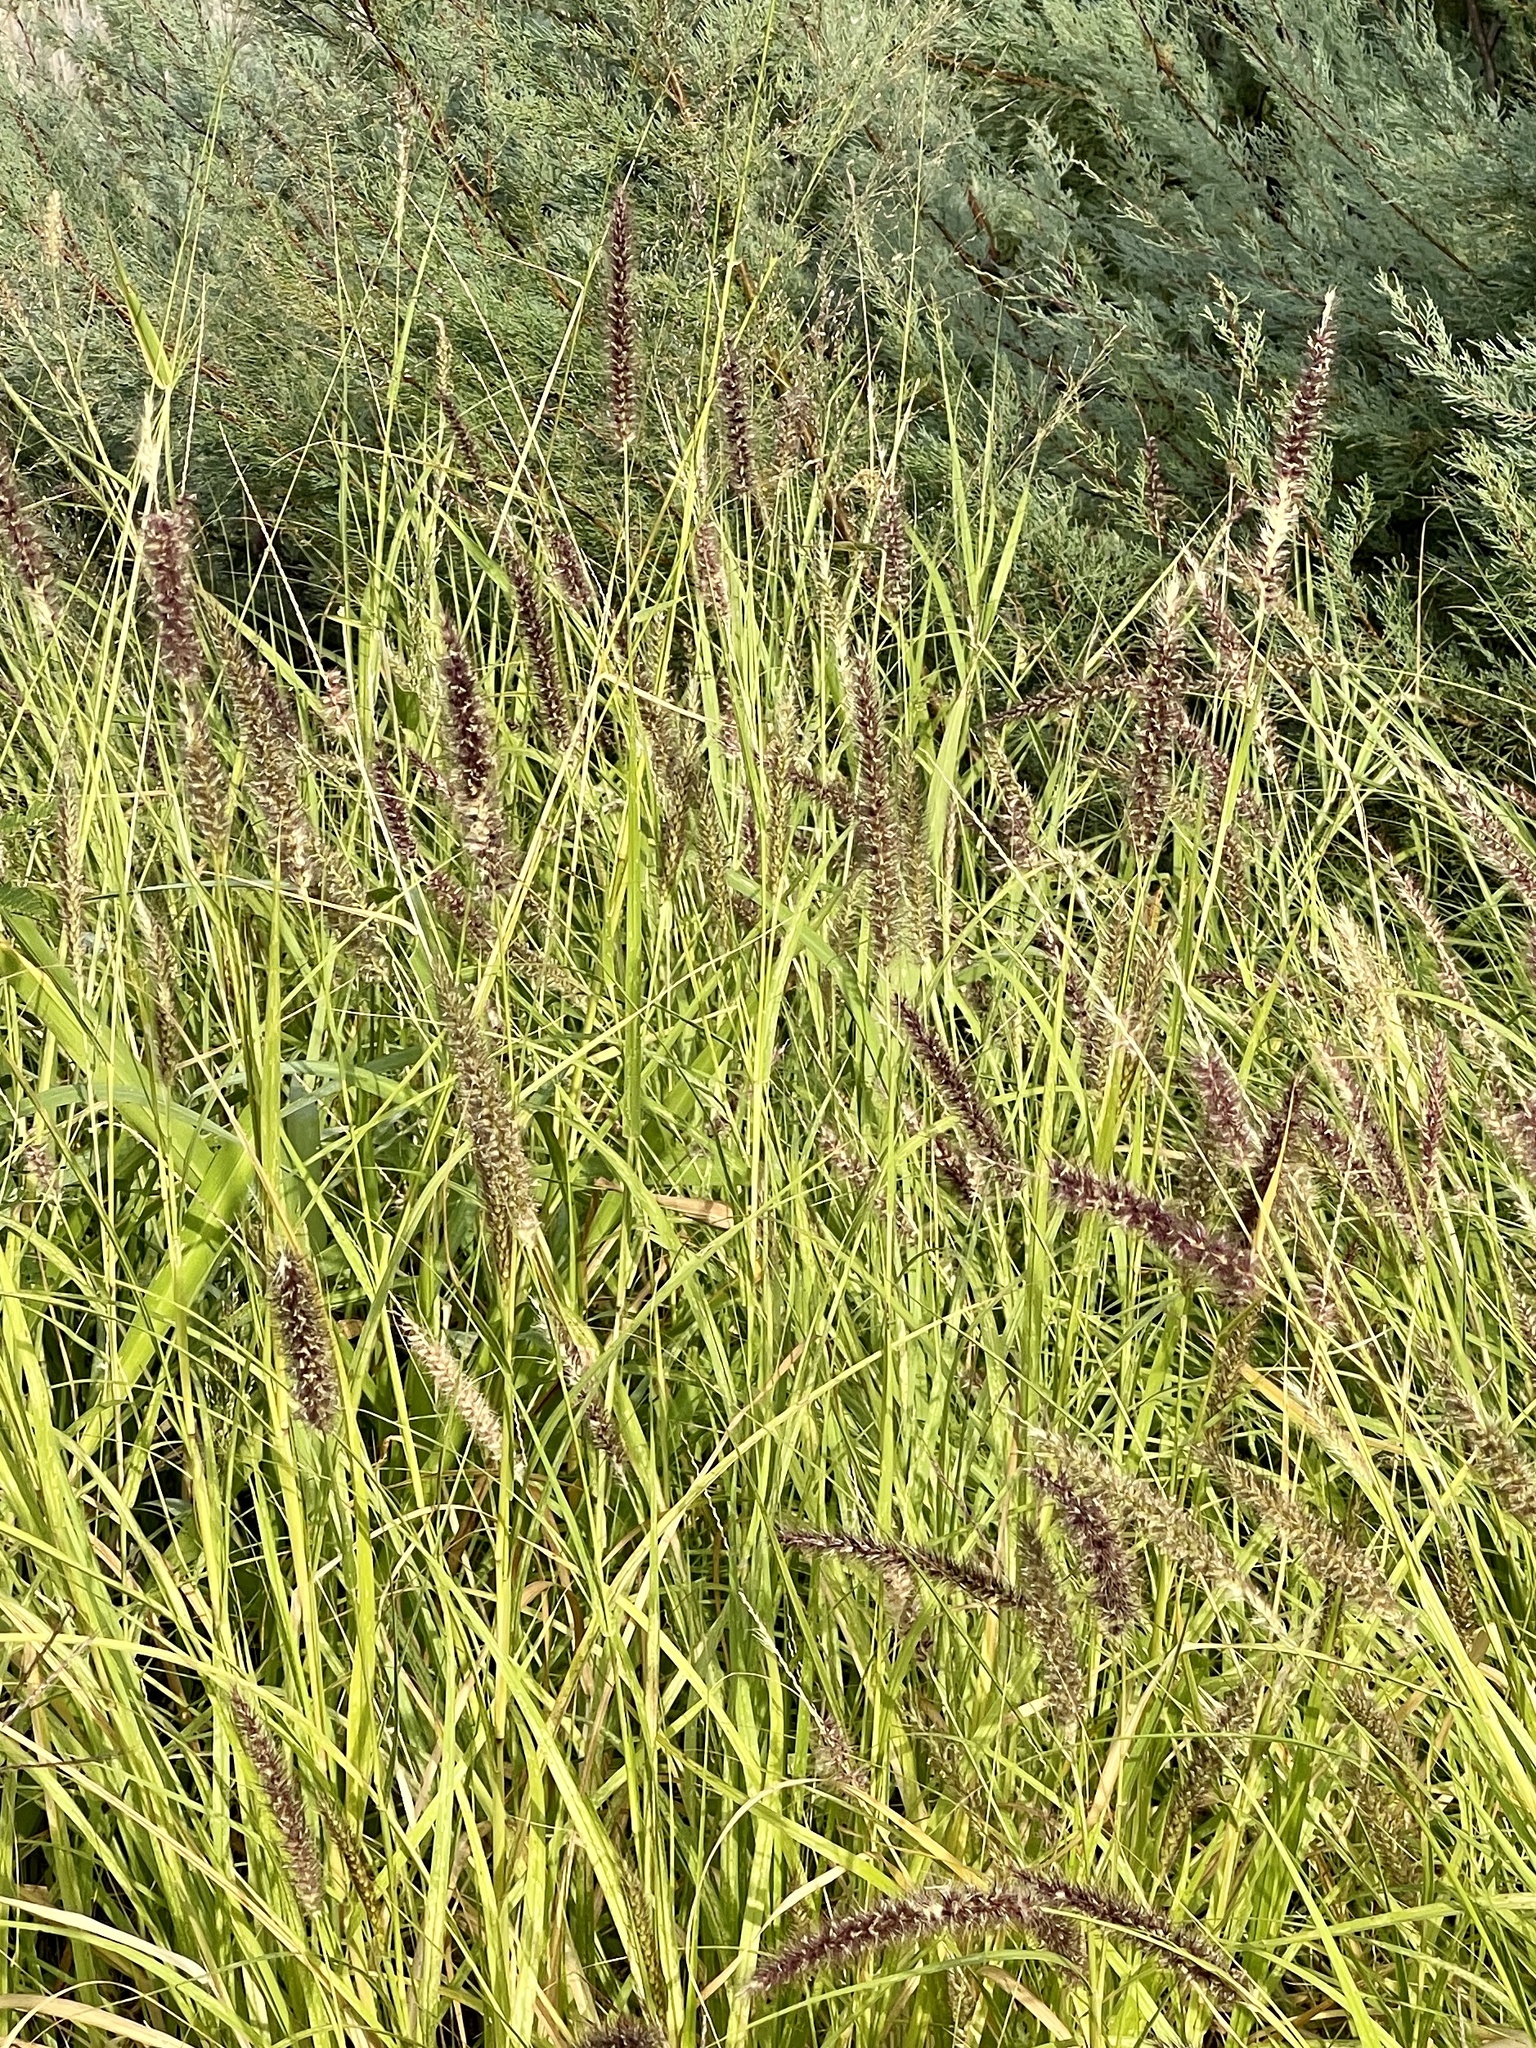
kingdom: Plantae
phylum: Tracheophyta
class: Liliopsida
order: Poales
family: Poaceae
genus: Cenchrus
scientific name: Cenchrus ciliaris
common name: Buffelgrass
